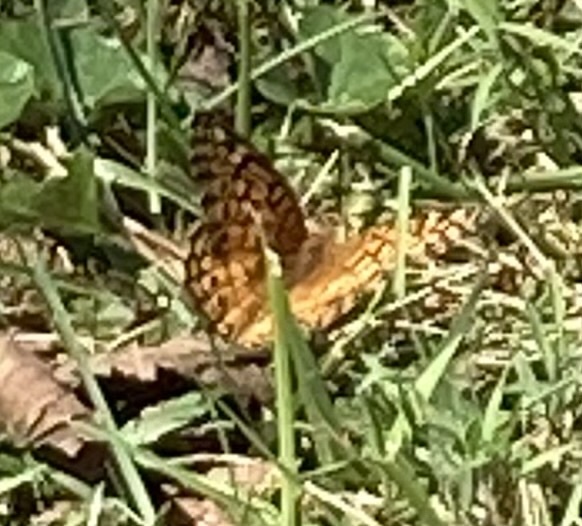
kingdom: Animalia
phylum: Arthropoda
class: Insecta
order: Lepidoptera
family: Nymphalidae
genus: Euptoieta
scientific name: Euptoieta claudia
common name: Variegated fritillary
